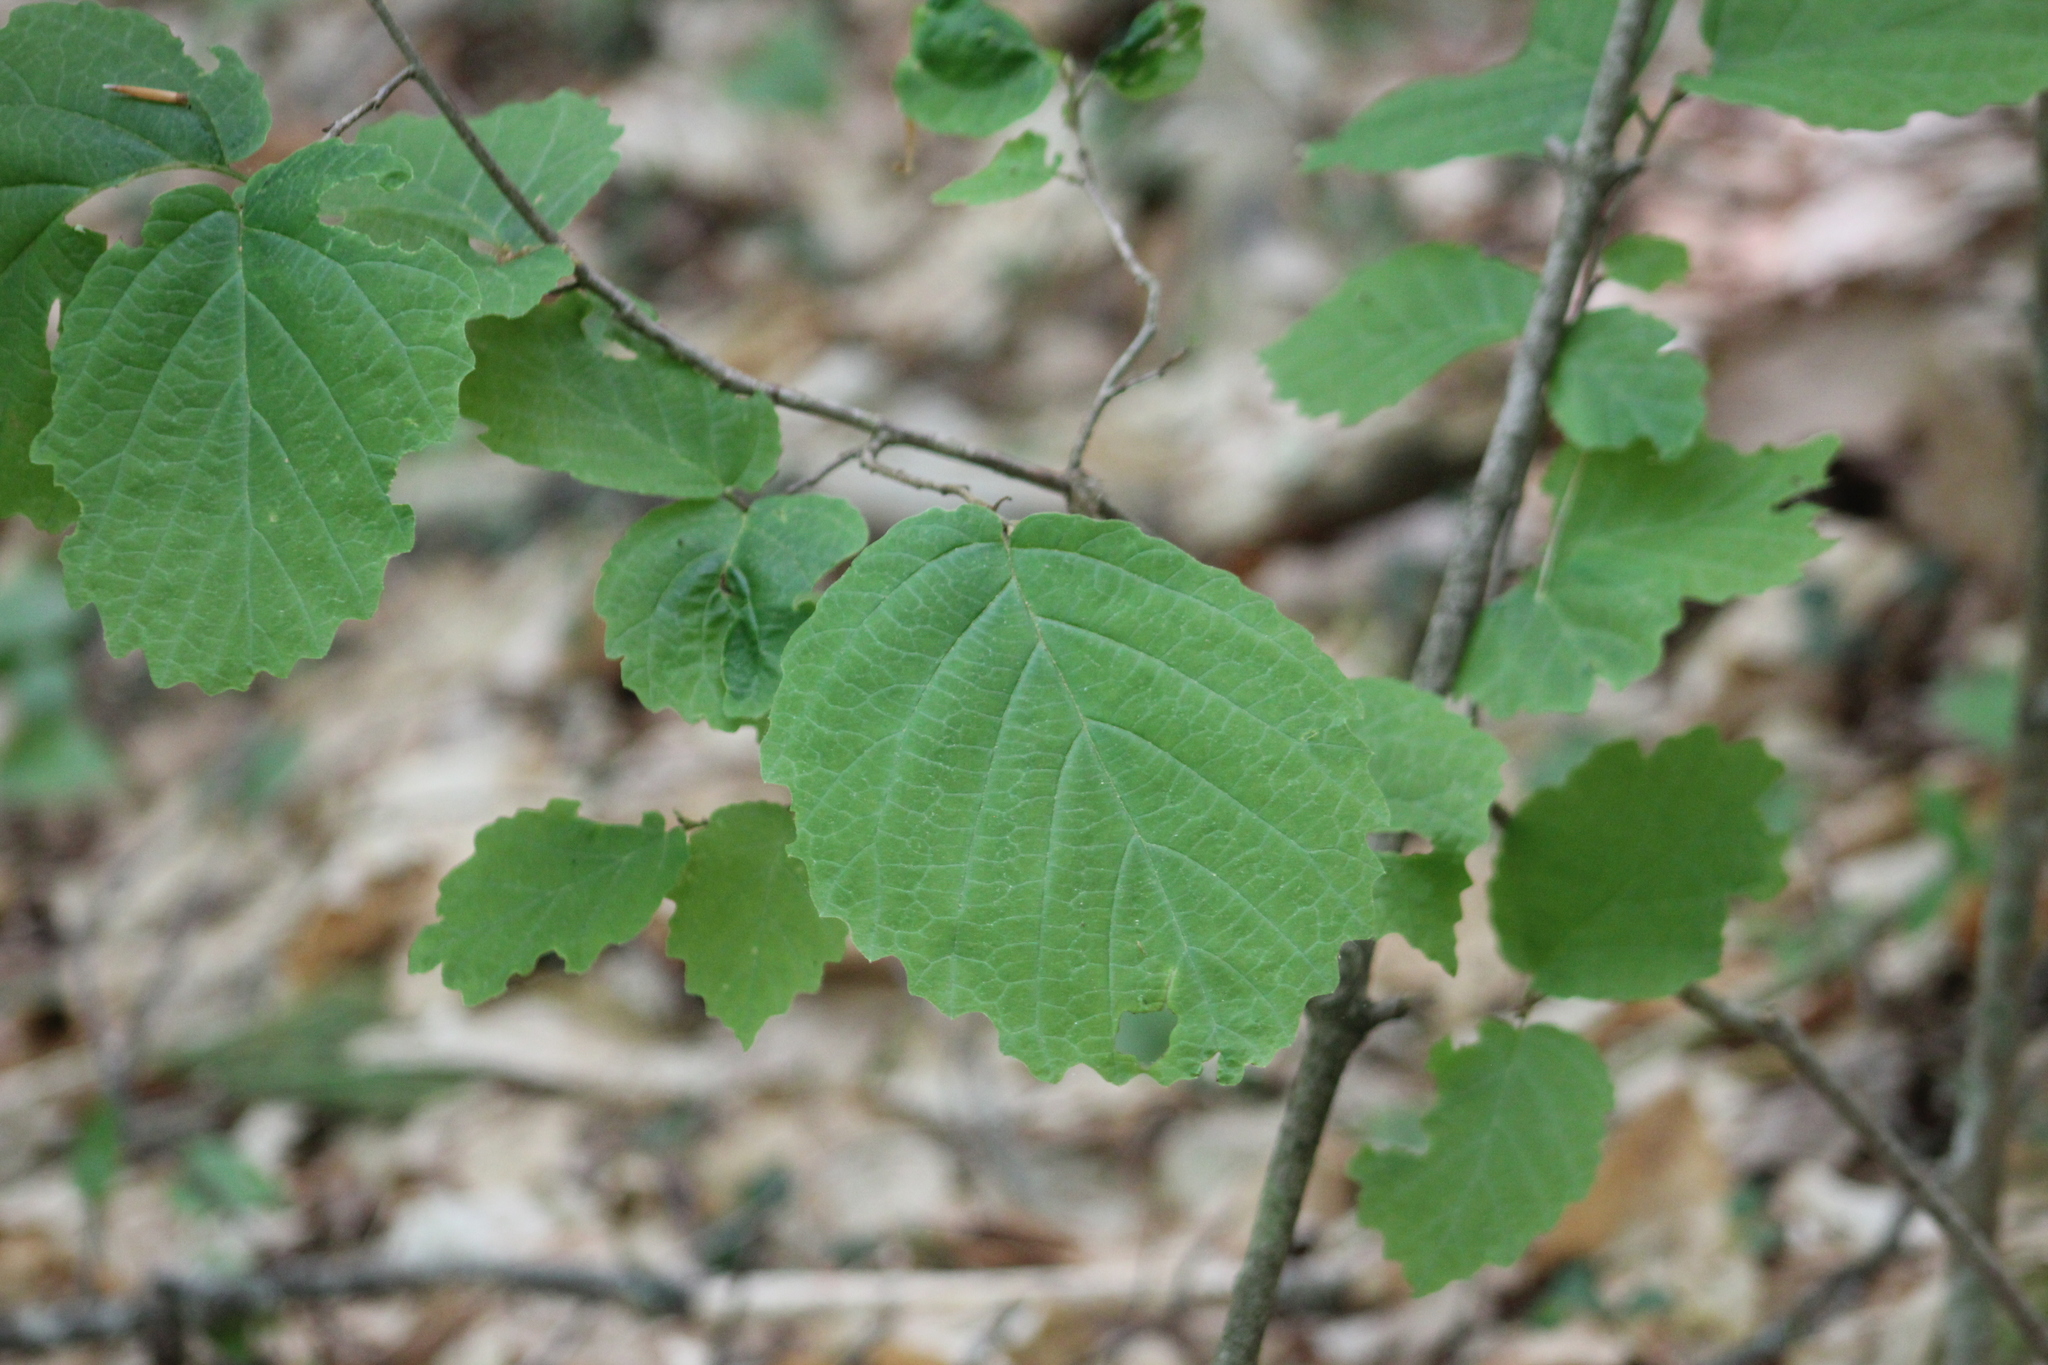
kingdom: Plantae
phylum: Tracheophyta
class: Magnoliopsida
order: Saxifragales
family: Hamamelidaceae
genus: Hamamelis
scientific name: Hamamelis virginiana
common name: Witch-hazel
